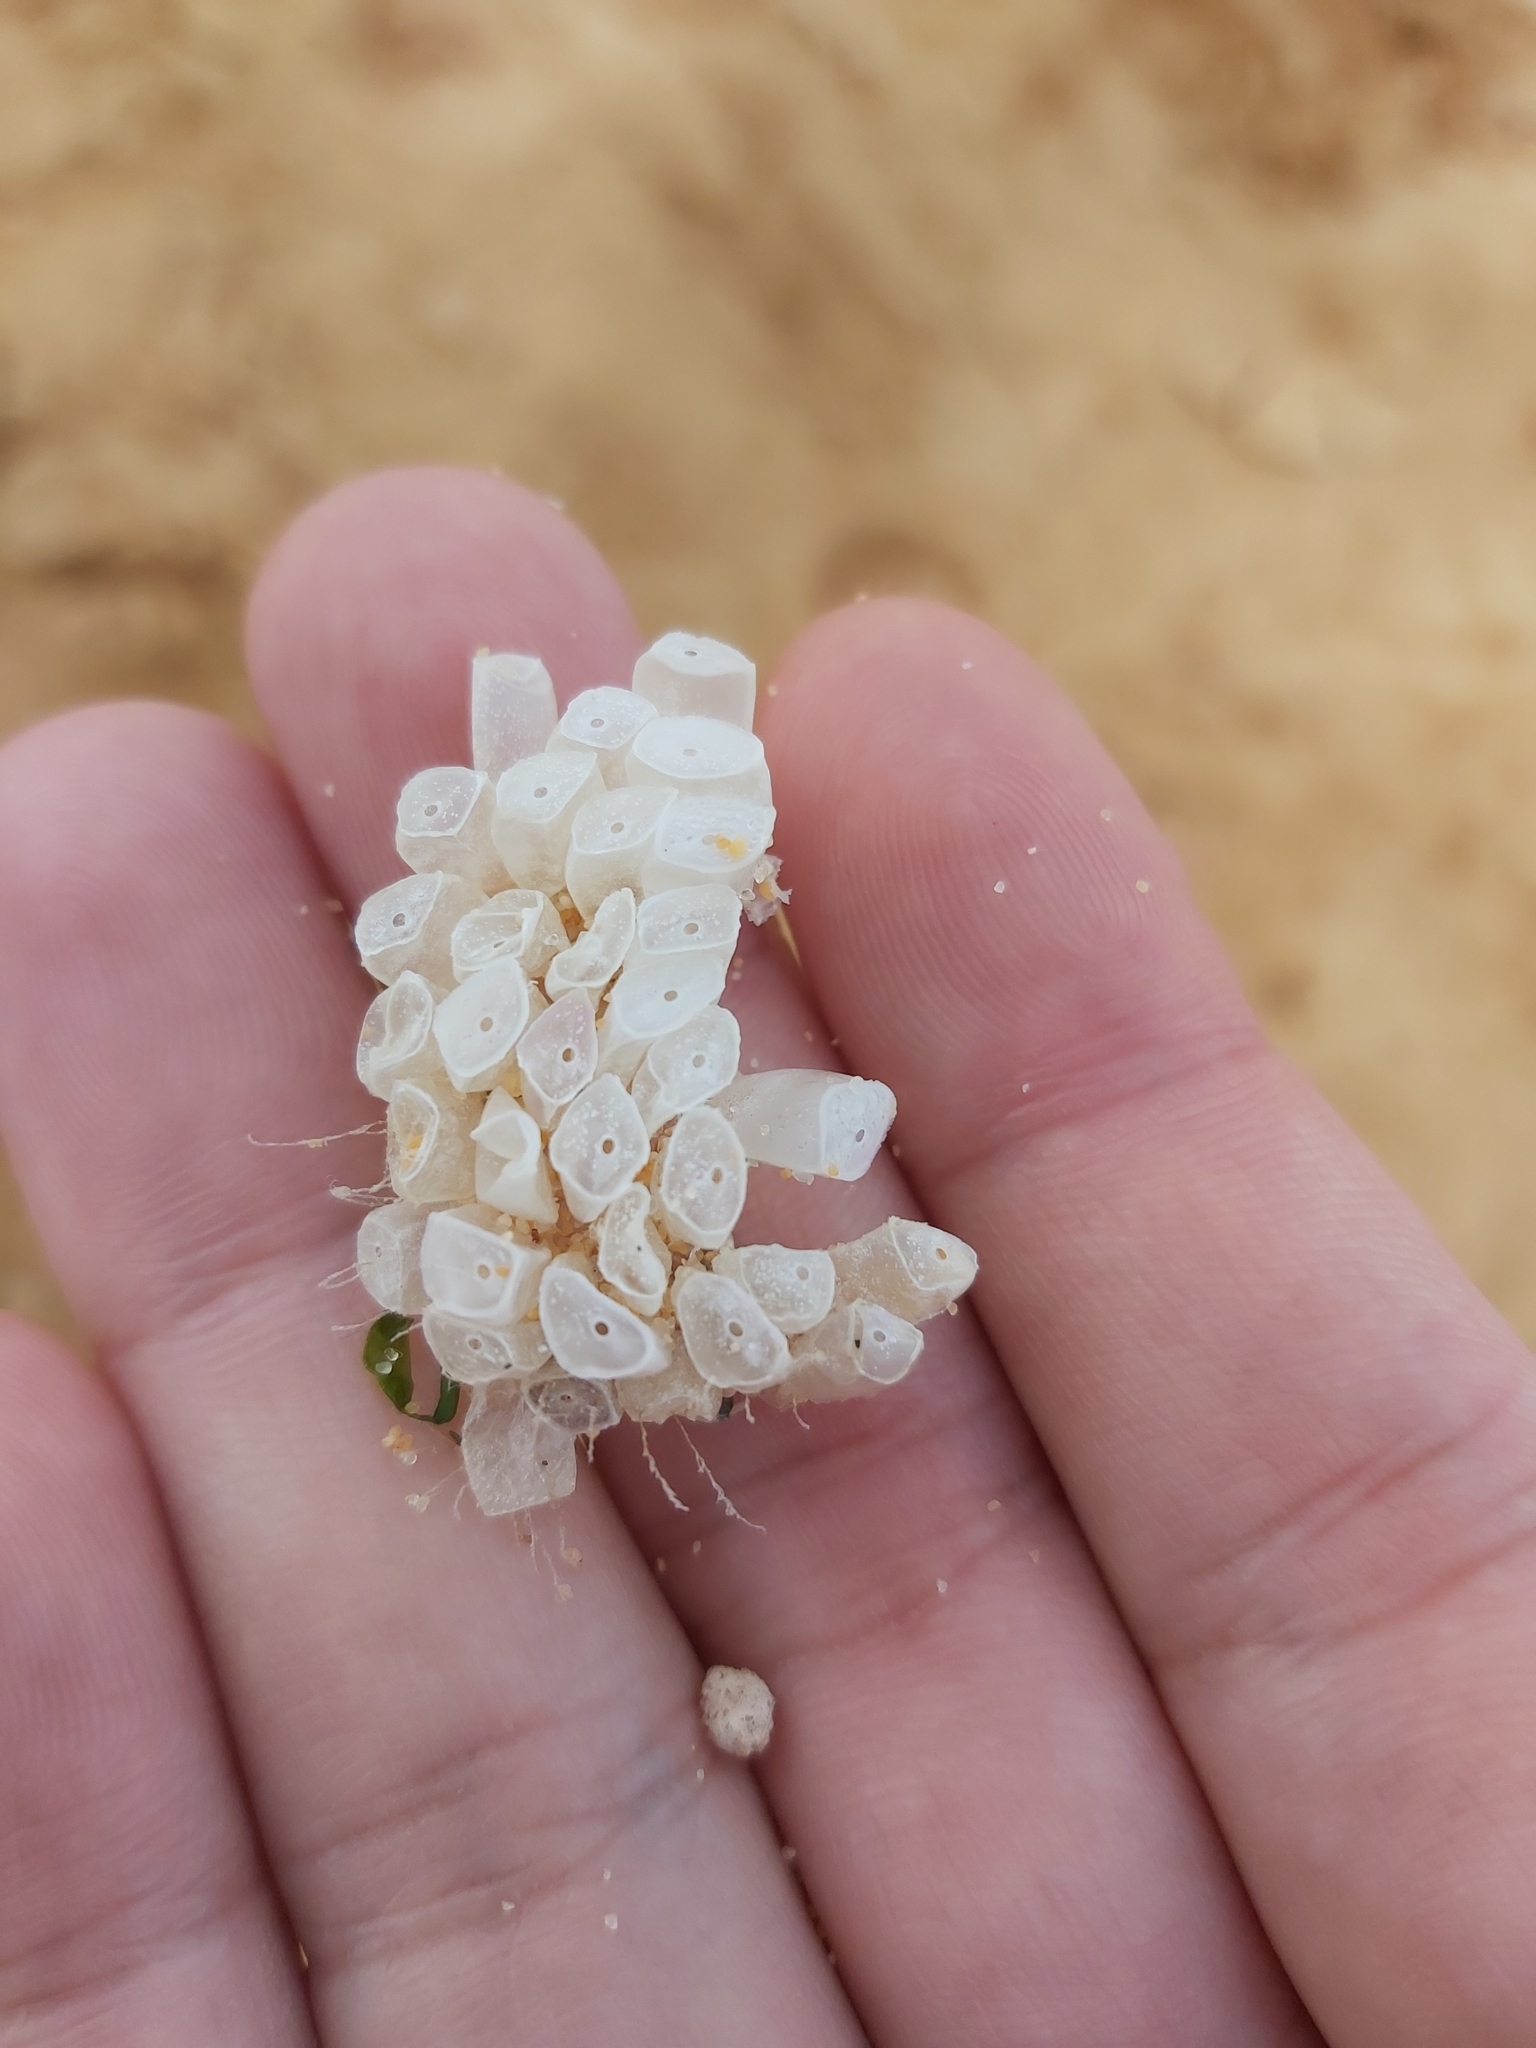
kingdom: Animalia
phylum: Mollusca
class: Gastropoda
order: Neogastropoda
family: Muricidae
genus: Dicathais
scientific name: Dicathais orbita
